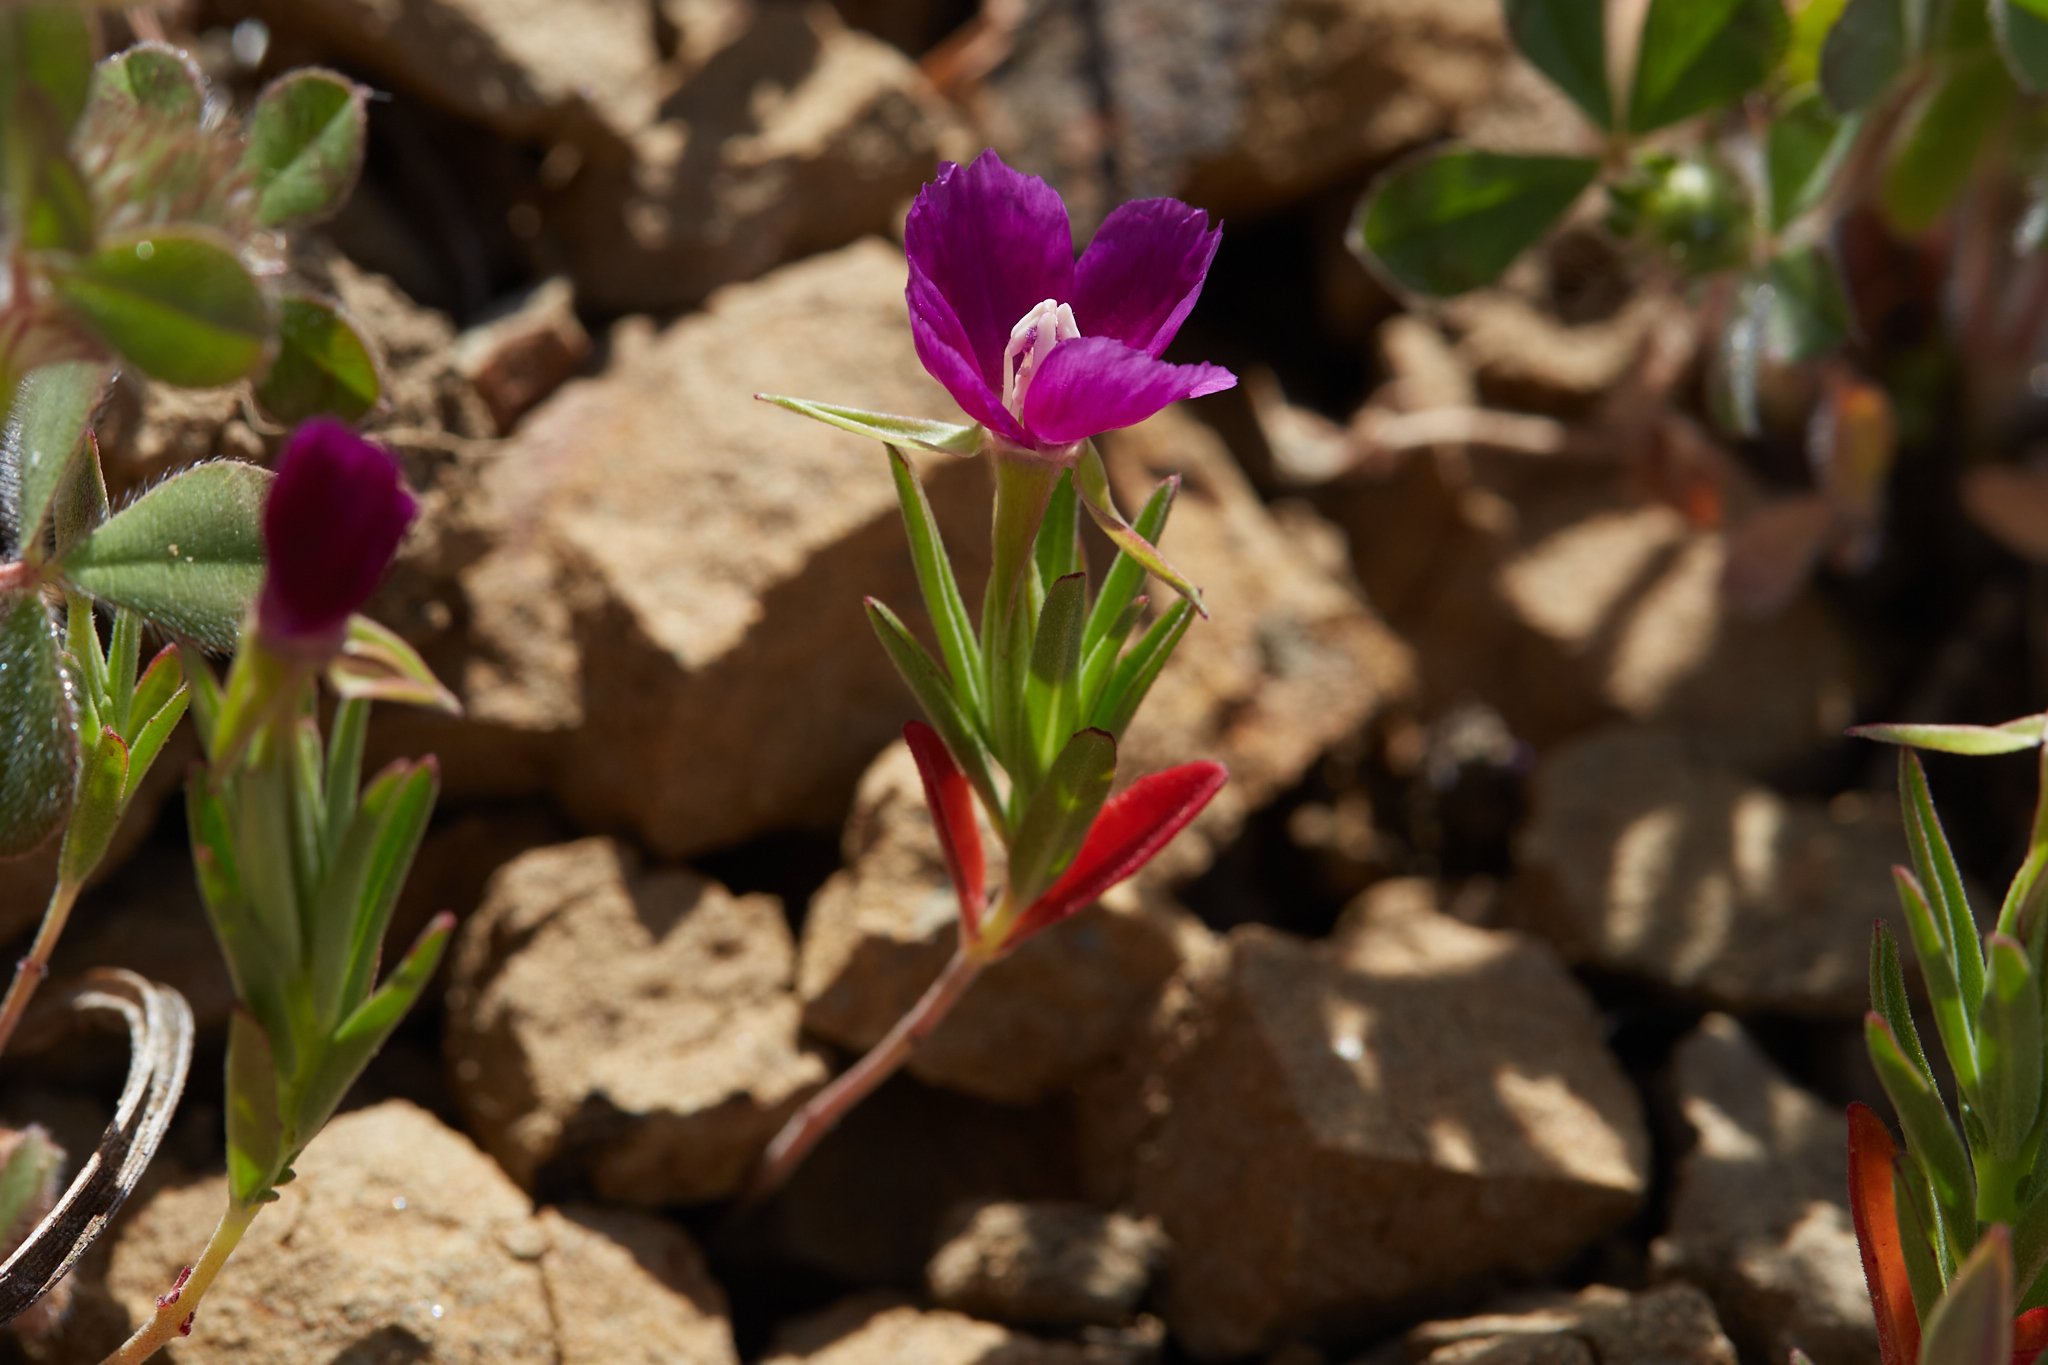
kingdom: Plantae
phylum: Tracheophyta
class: Magnoliopsida
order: Myrtales
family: Onagraceae
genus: Clarkia
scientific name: Clarkia purpurea
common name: Purple clarkia
